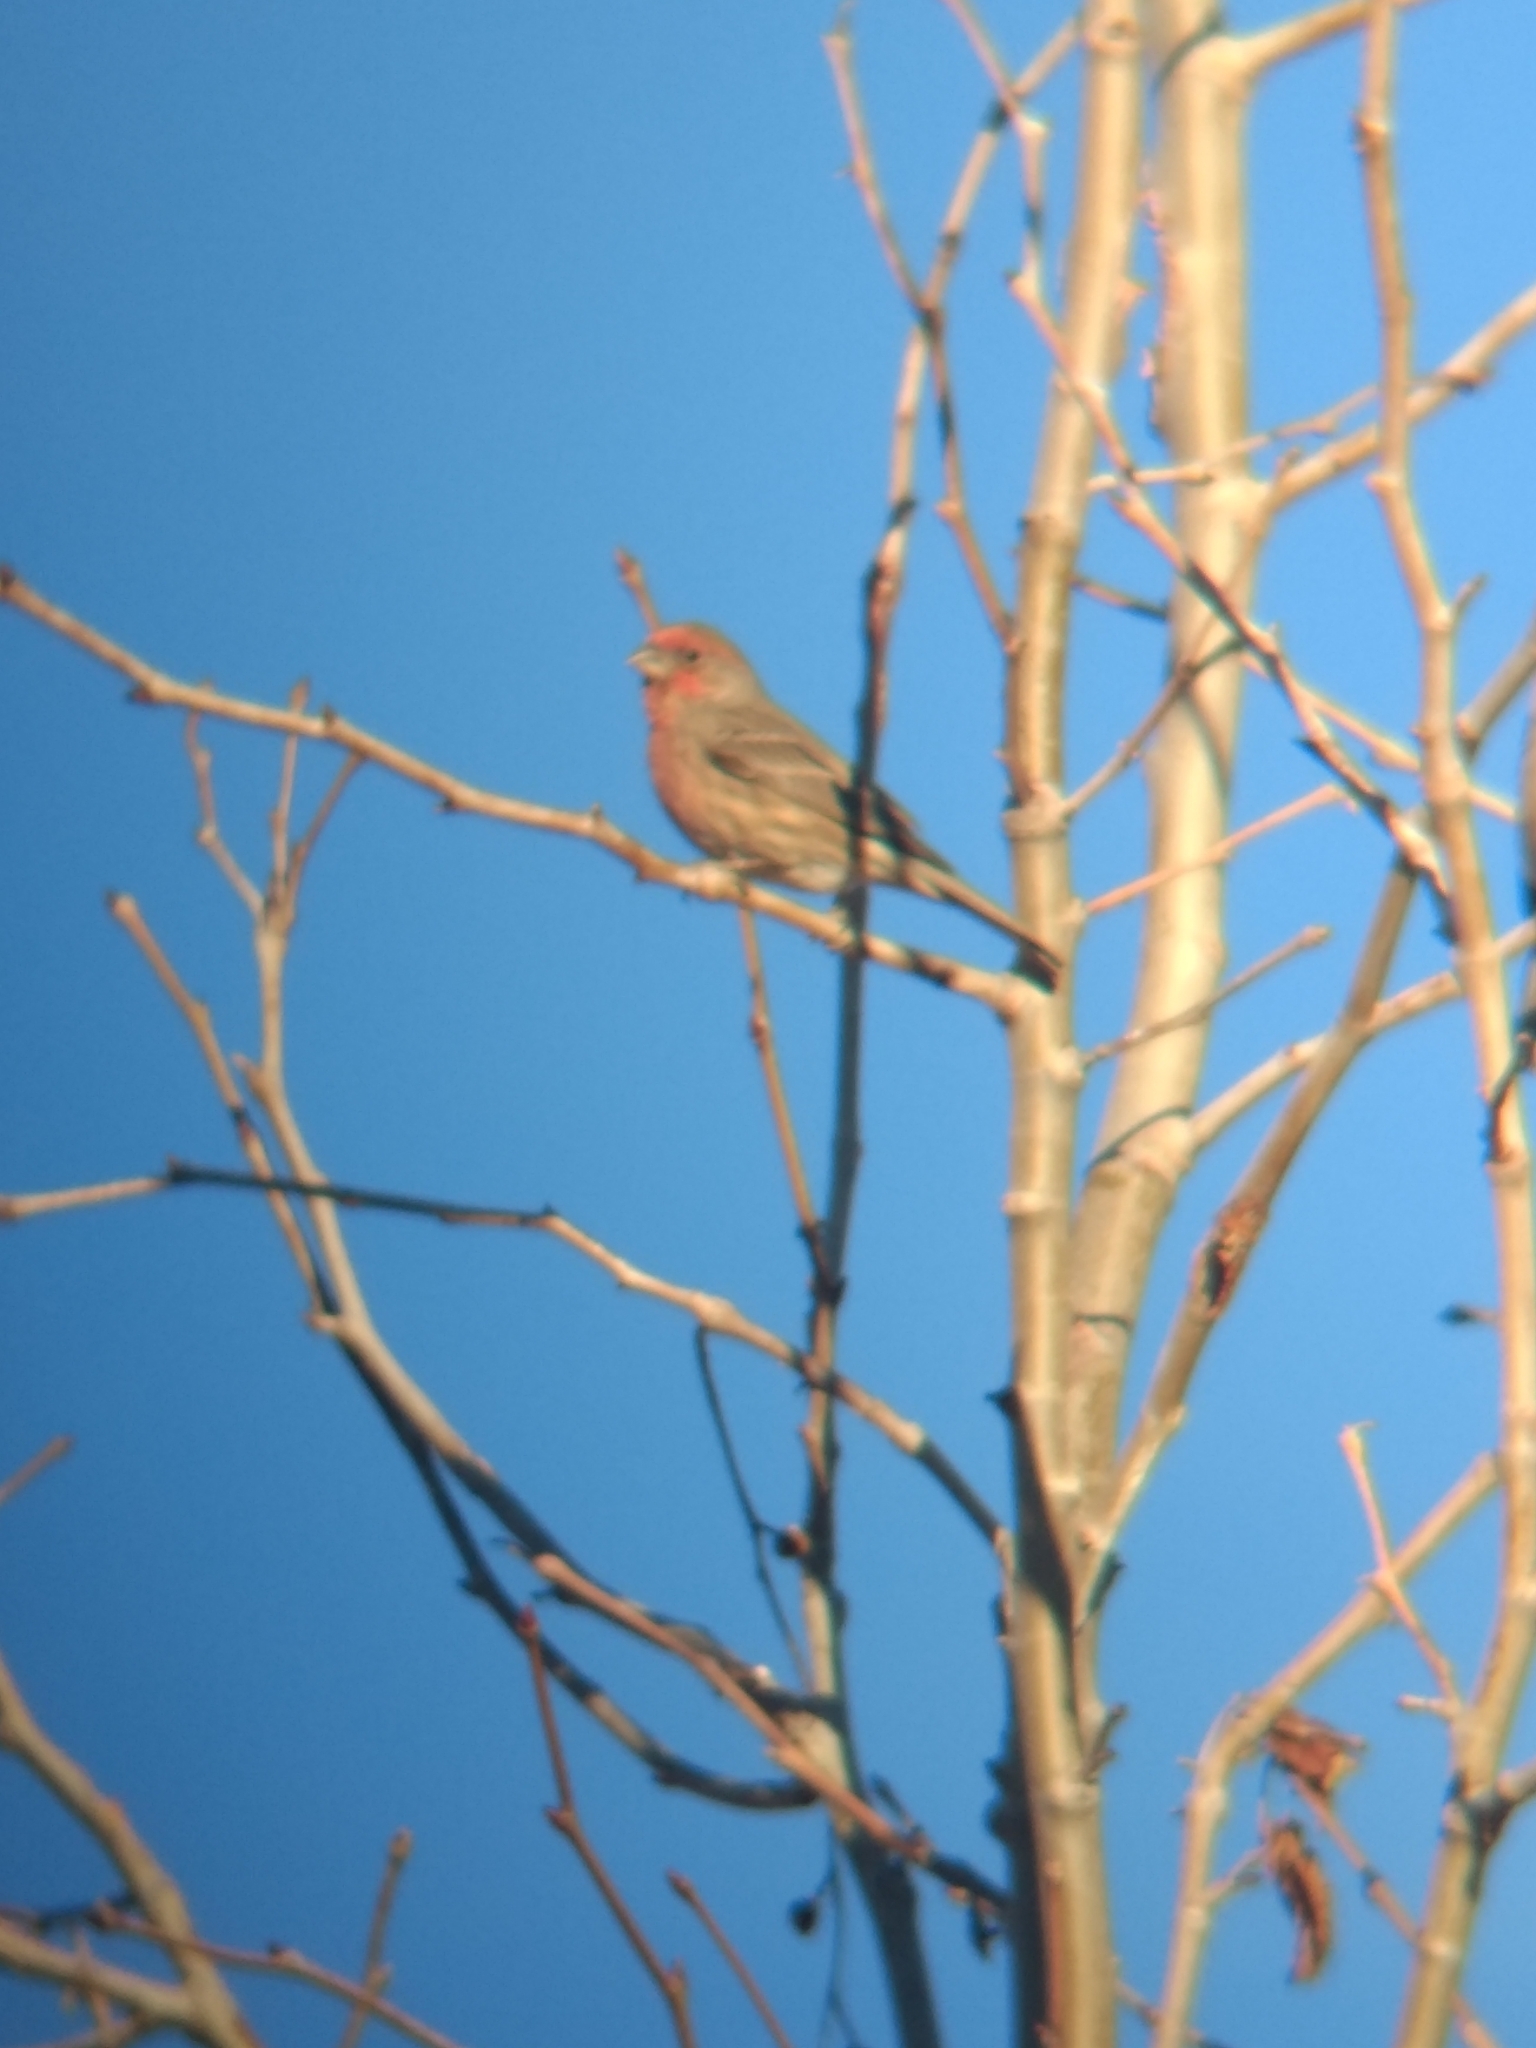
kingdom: Animalia
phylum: Chordata
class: Aves
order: Passeriformes
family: Fringillidae
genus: Haemorhous
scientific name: Haemorhous mexicanus
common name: House finch
